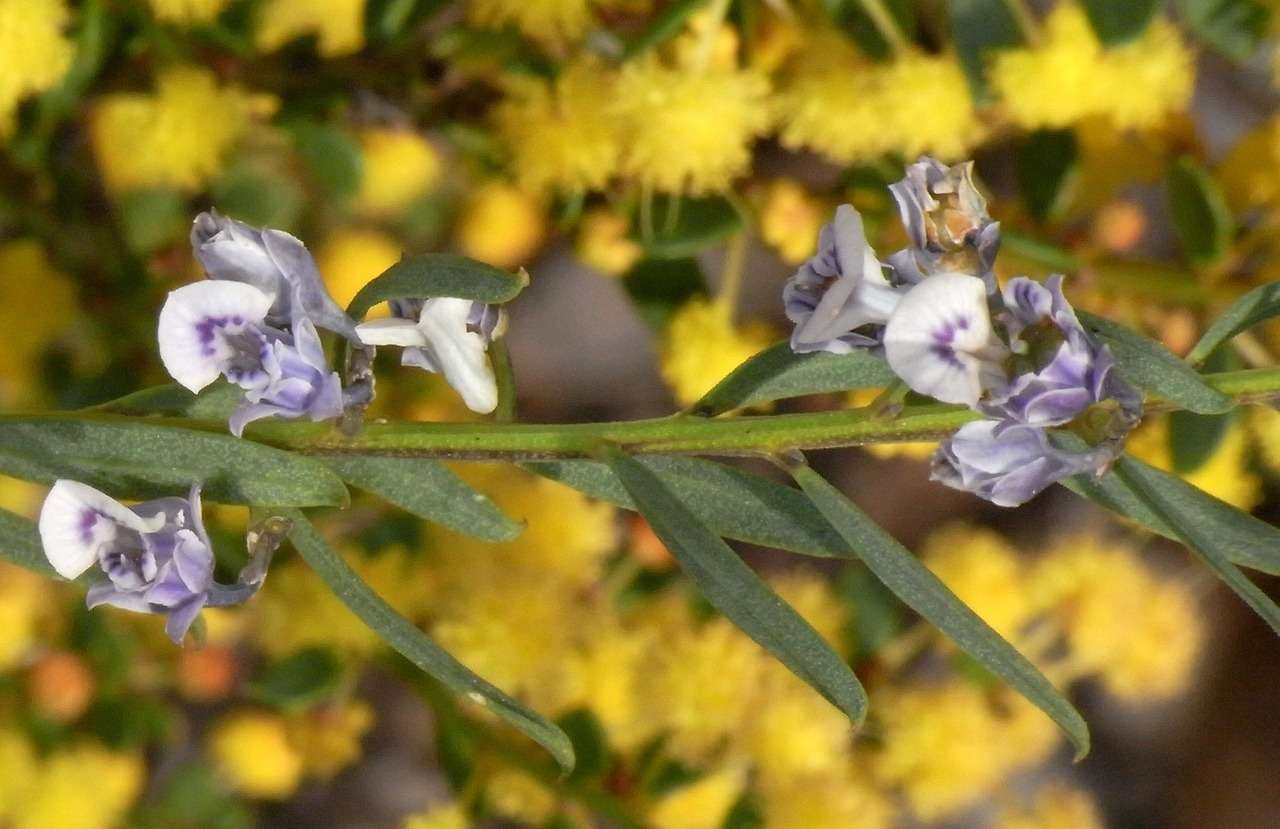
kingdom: Plantae
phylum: Tracheophyta
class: Magnoliopsida
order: Malpighiales
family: Violaceae
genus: Pigea
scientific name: Pigea floribunda
